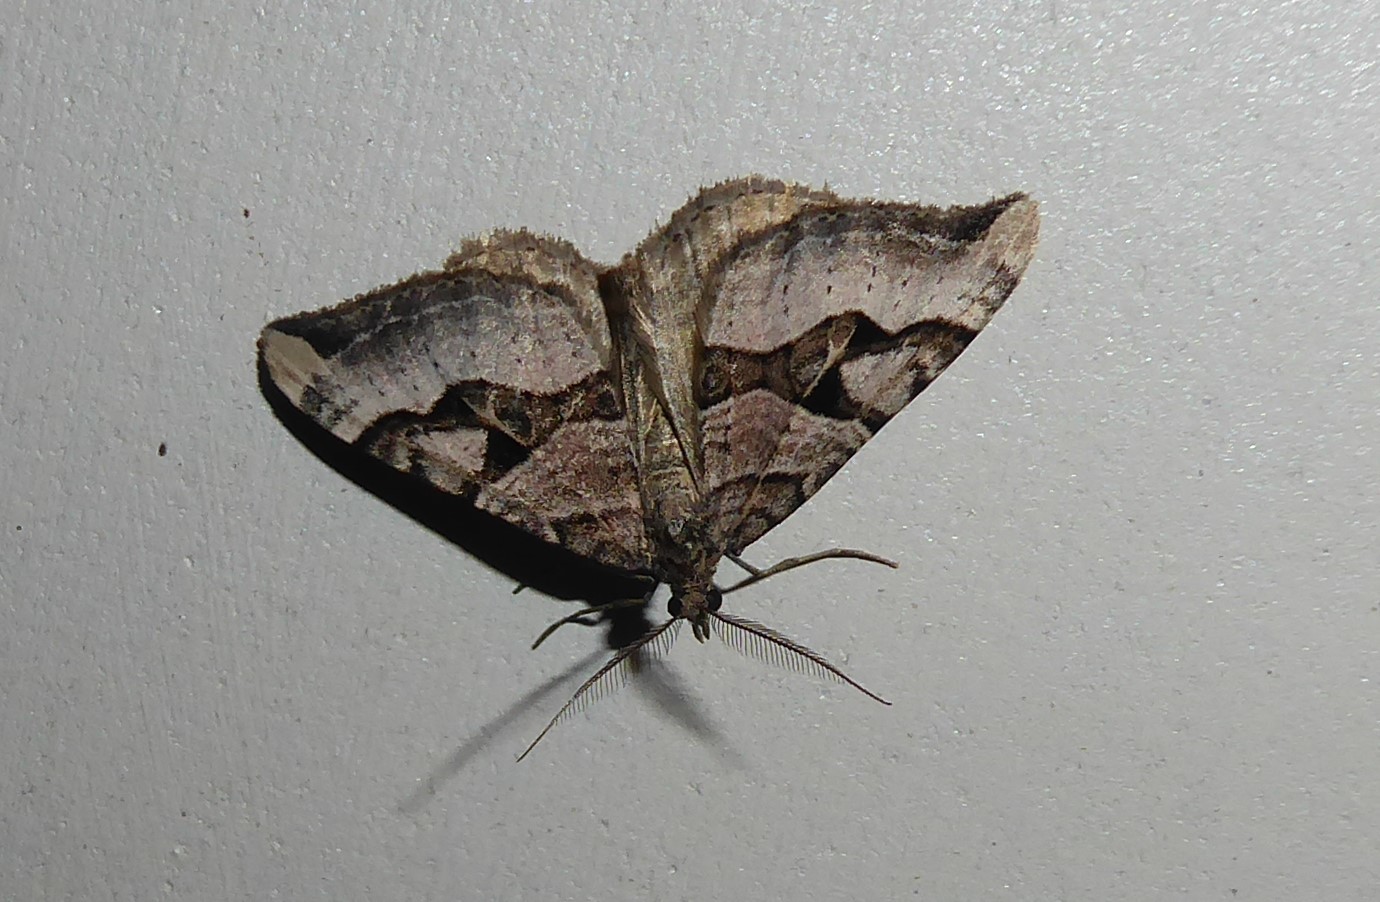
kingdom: Animalia
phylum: Arthropoda
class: Insecta
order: Lepidoptera
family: Geometridae
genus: Xanthorhoe
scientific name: Xanthorhoe semifissata
